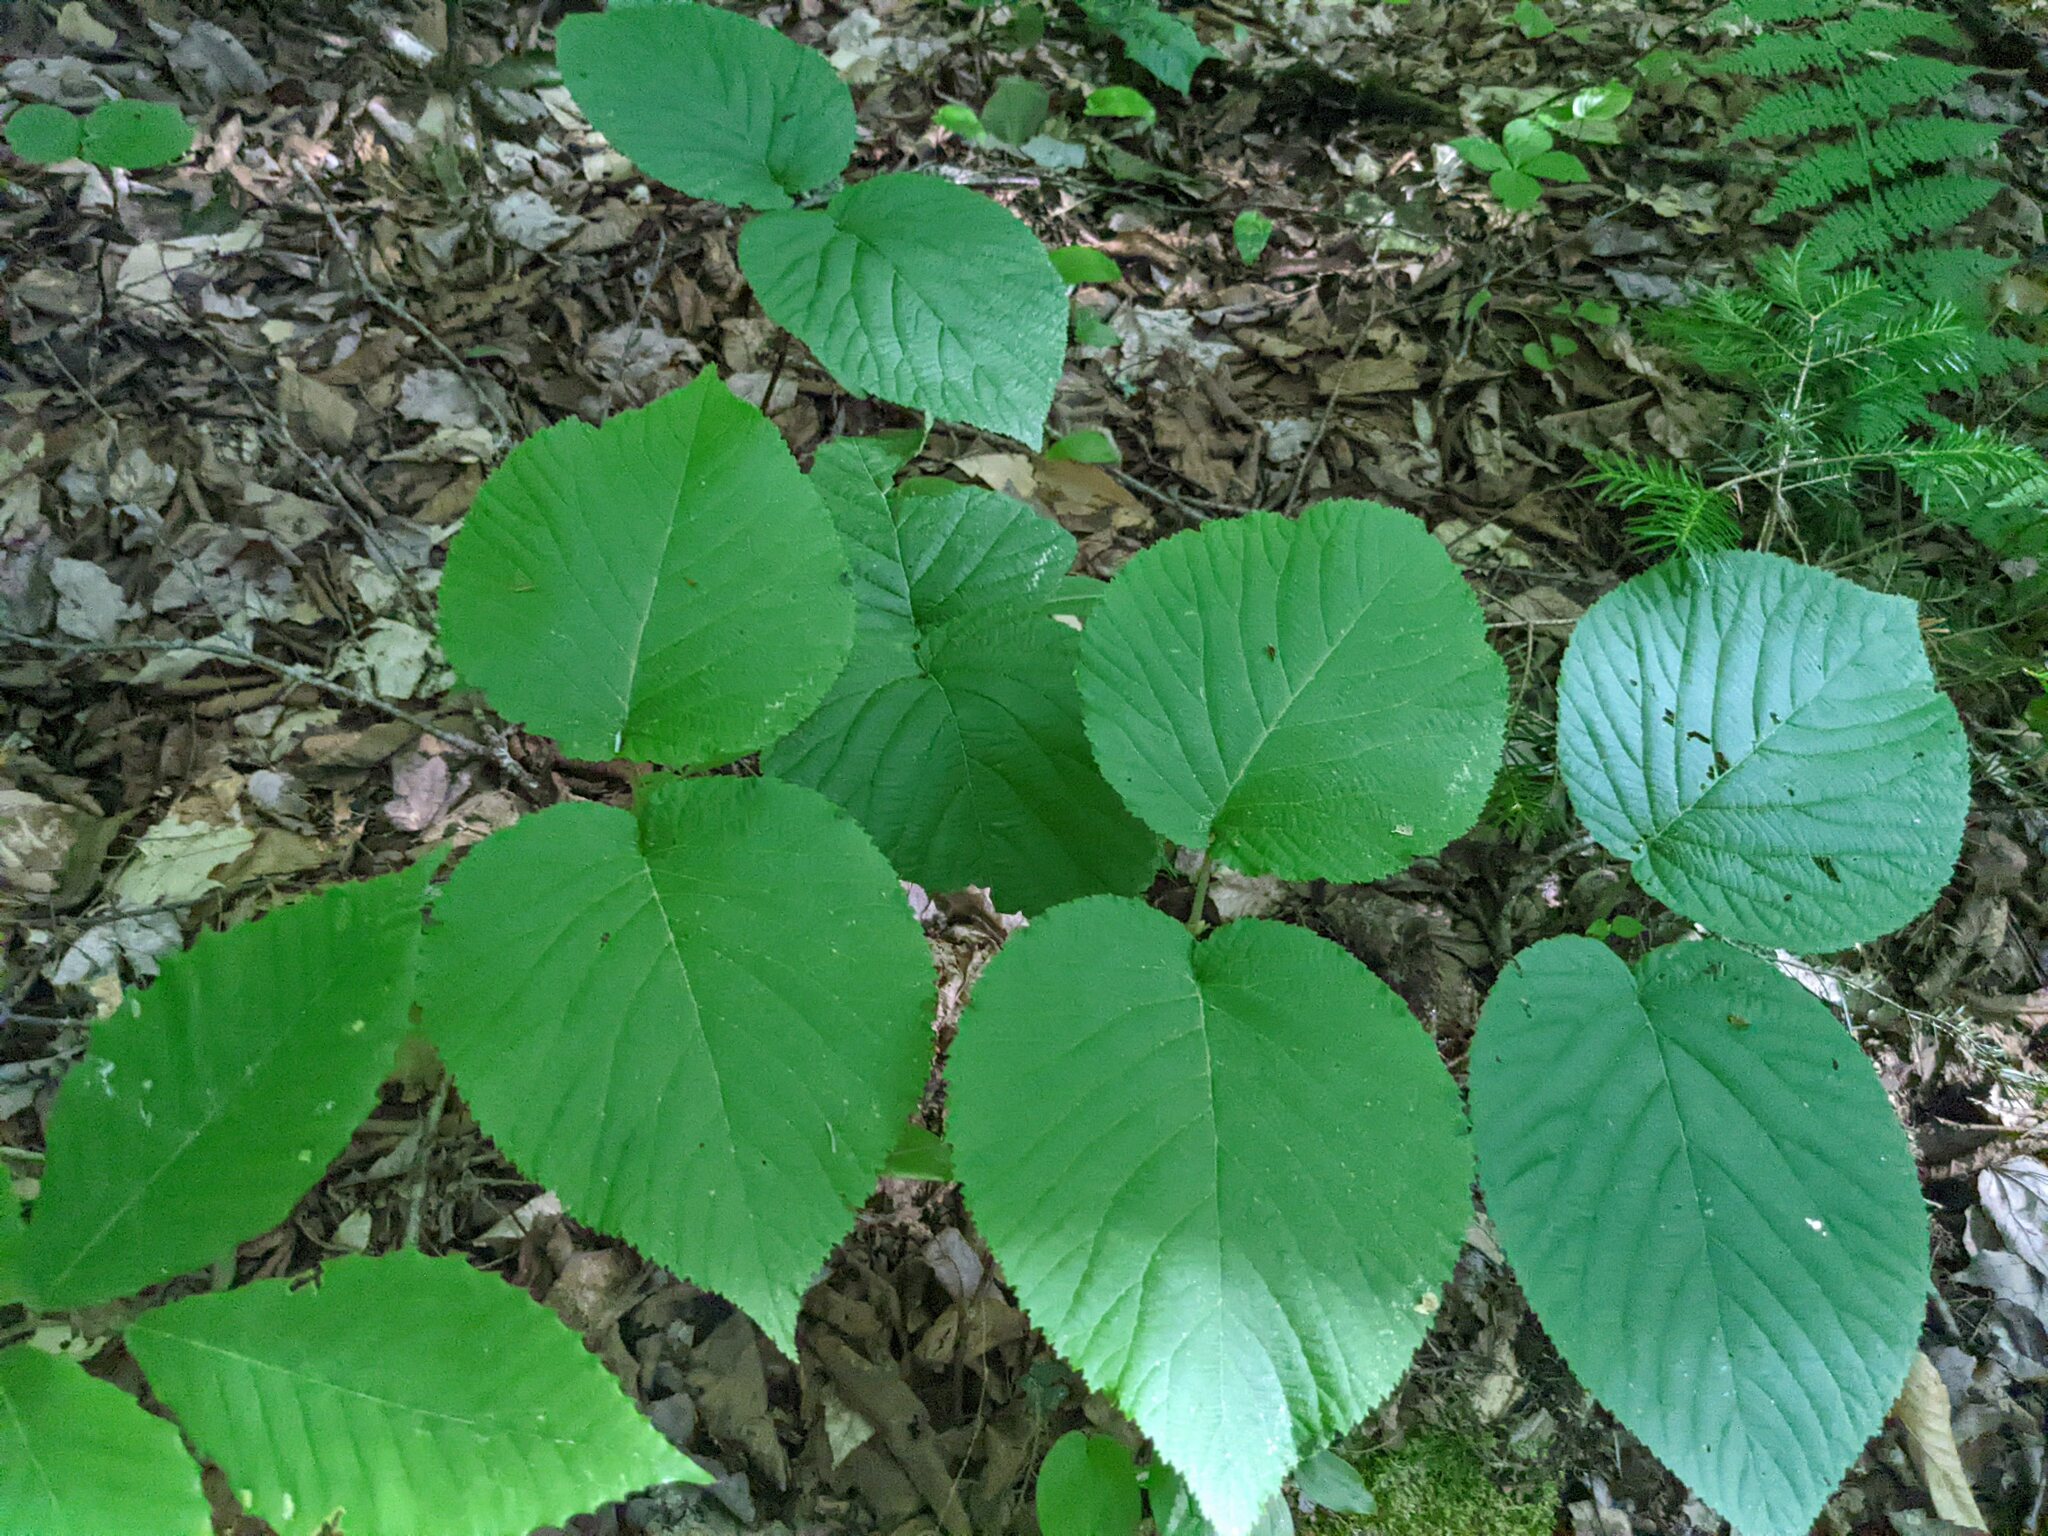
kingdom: Plantae
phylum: Tracheophyta
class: Magnoliopsida
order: Dipsacales
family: Viburnaceae
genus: Viburnum
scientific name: Viburnum lantanoides
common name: Hobblebush
